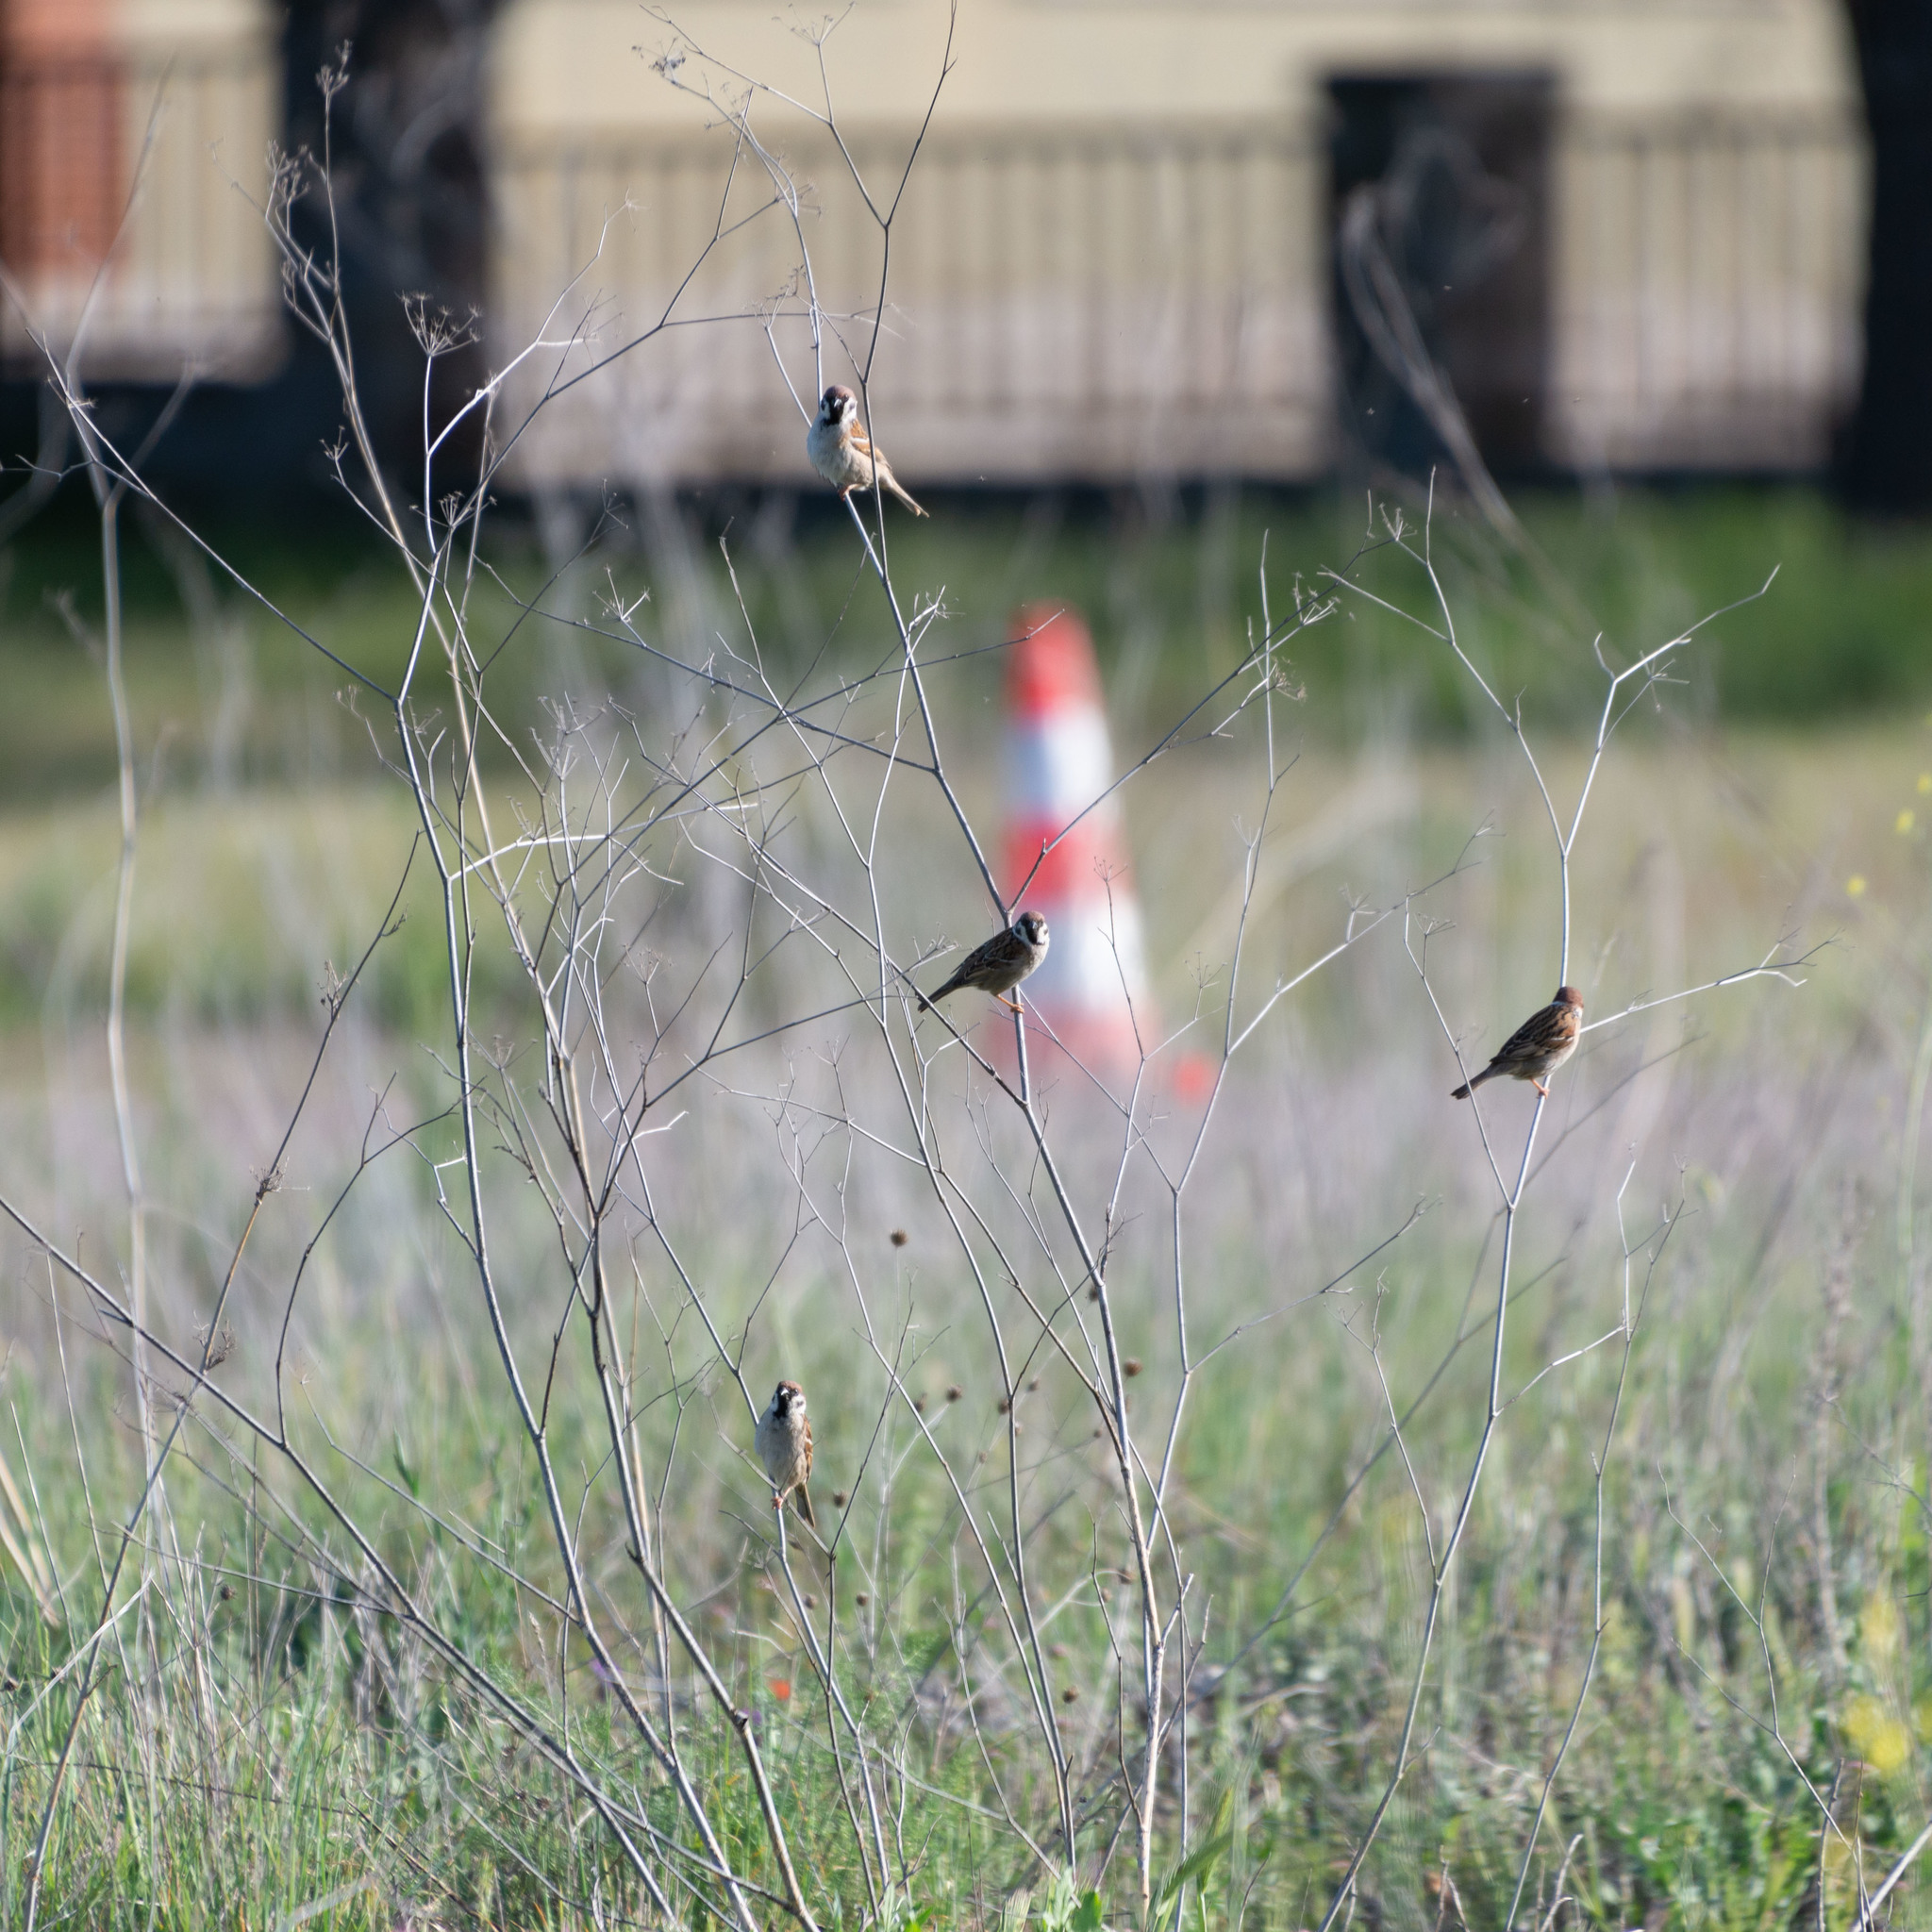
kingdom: Animalia
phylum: Chordata
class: Aves
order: Passeriformes
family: Passeridae
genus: Passer
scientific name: Passer montanus
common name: Eurasian tree sparrow
